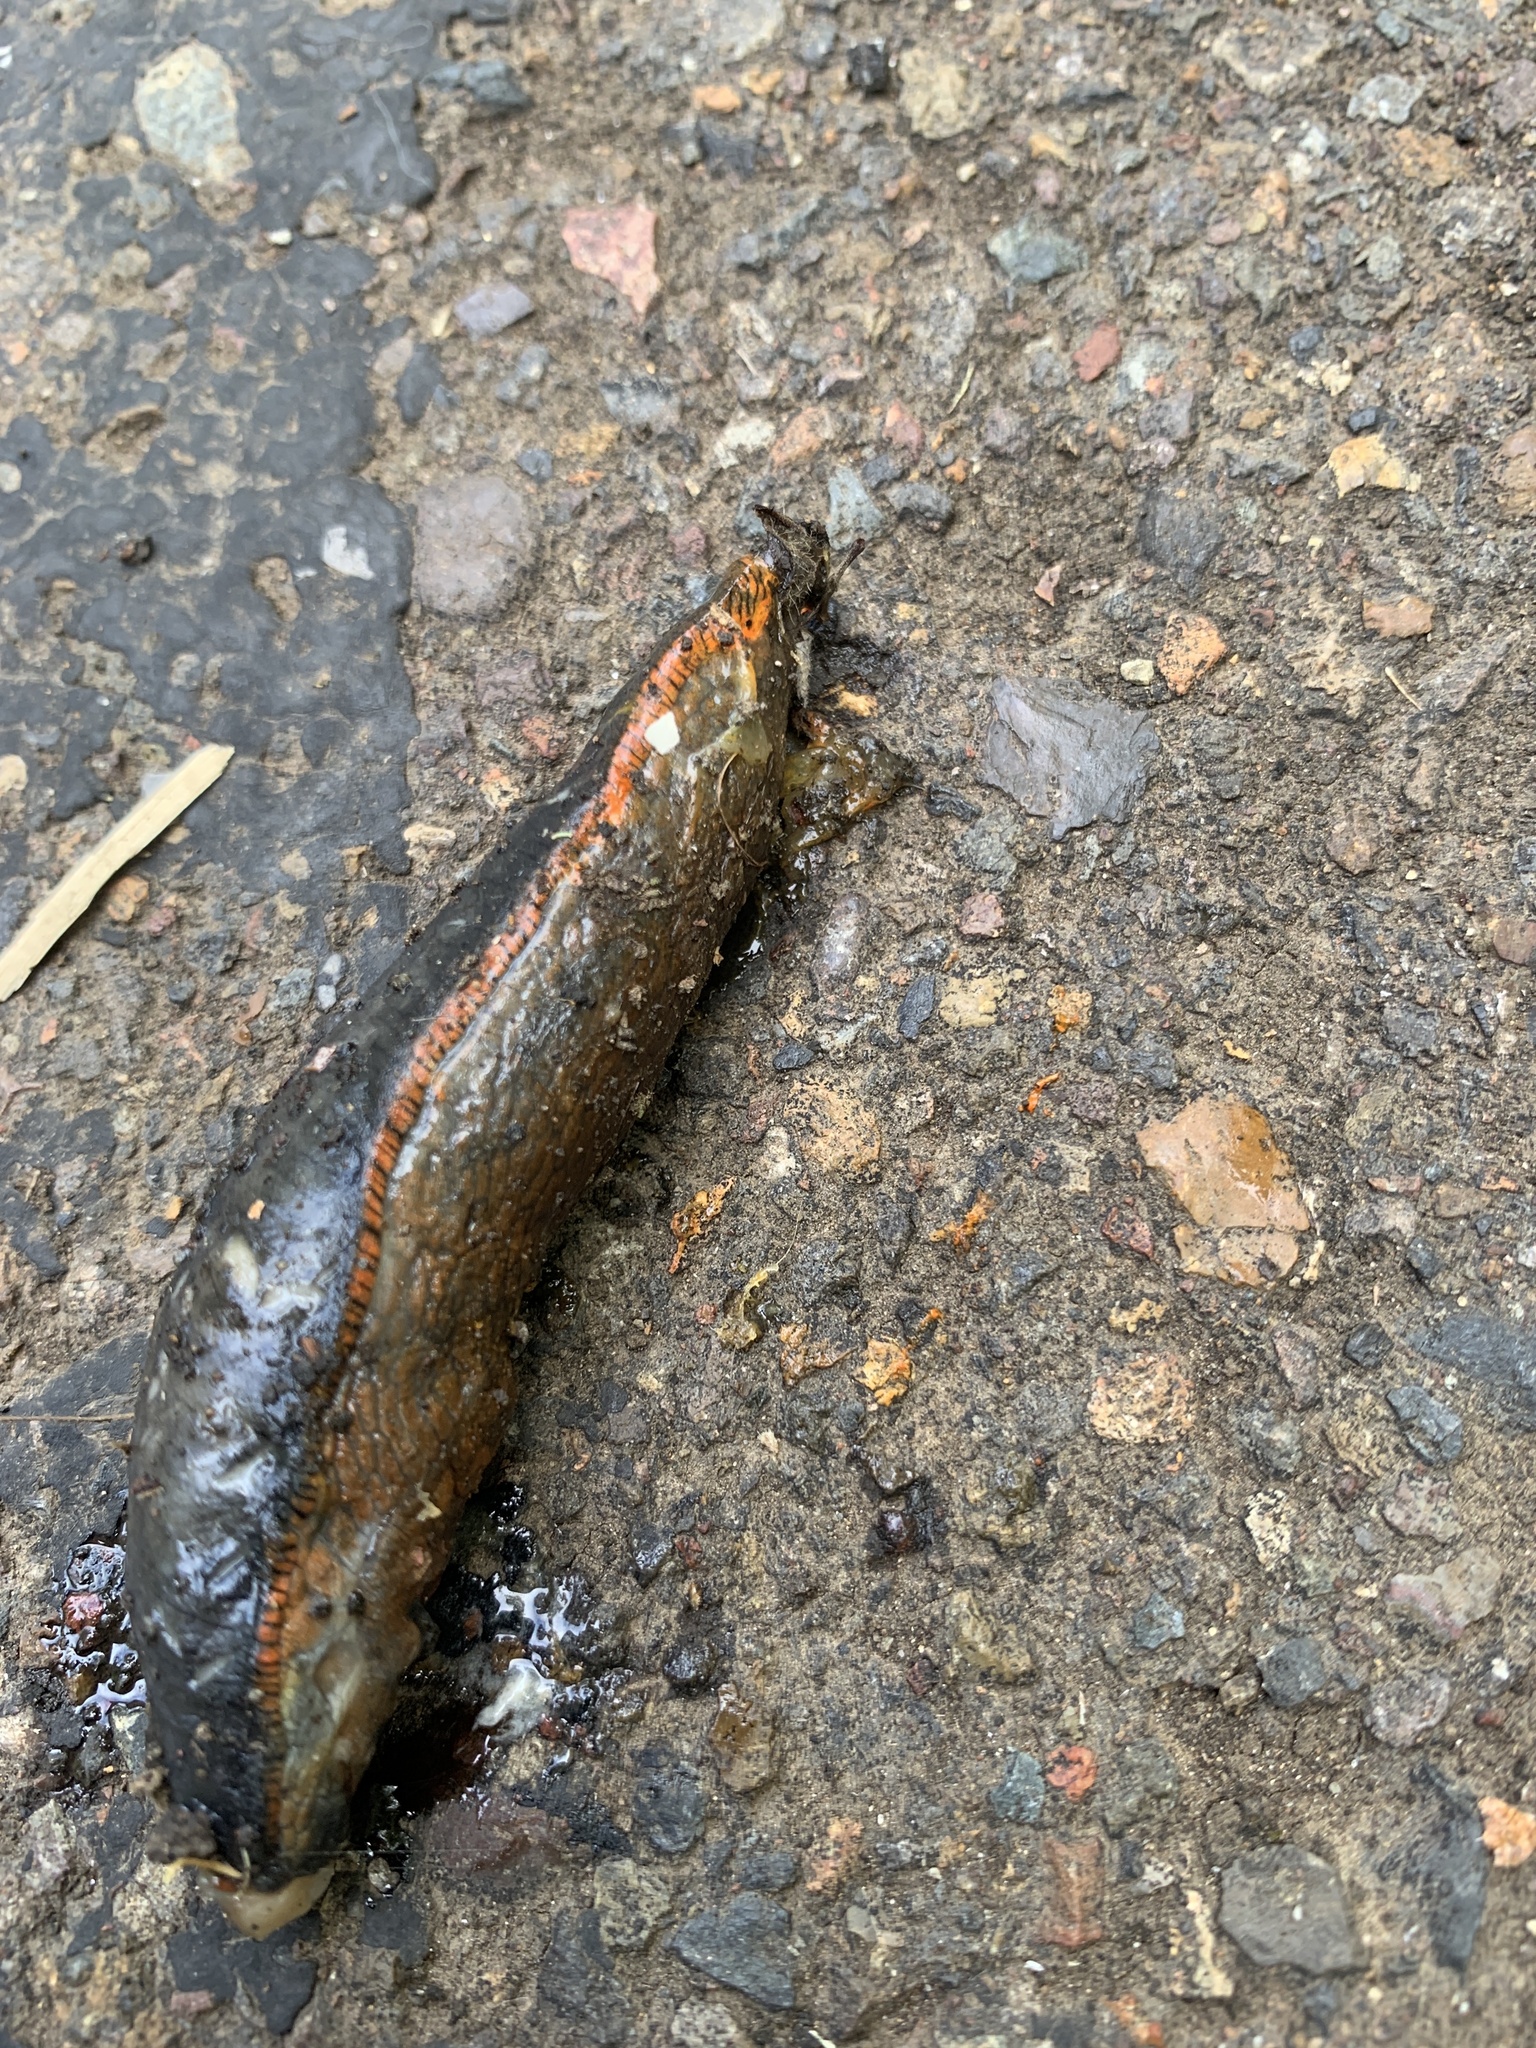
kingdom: Animalia
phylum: Mollusca
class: Gastropoda
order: Stylommatophora
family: Arionidae
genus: Arion
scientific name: Arion rufus
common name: Chocolate arion
